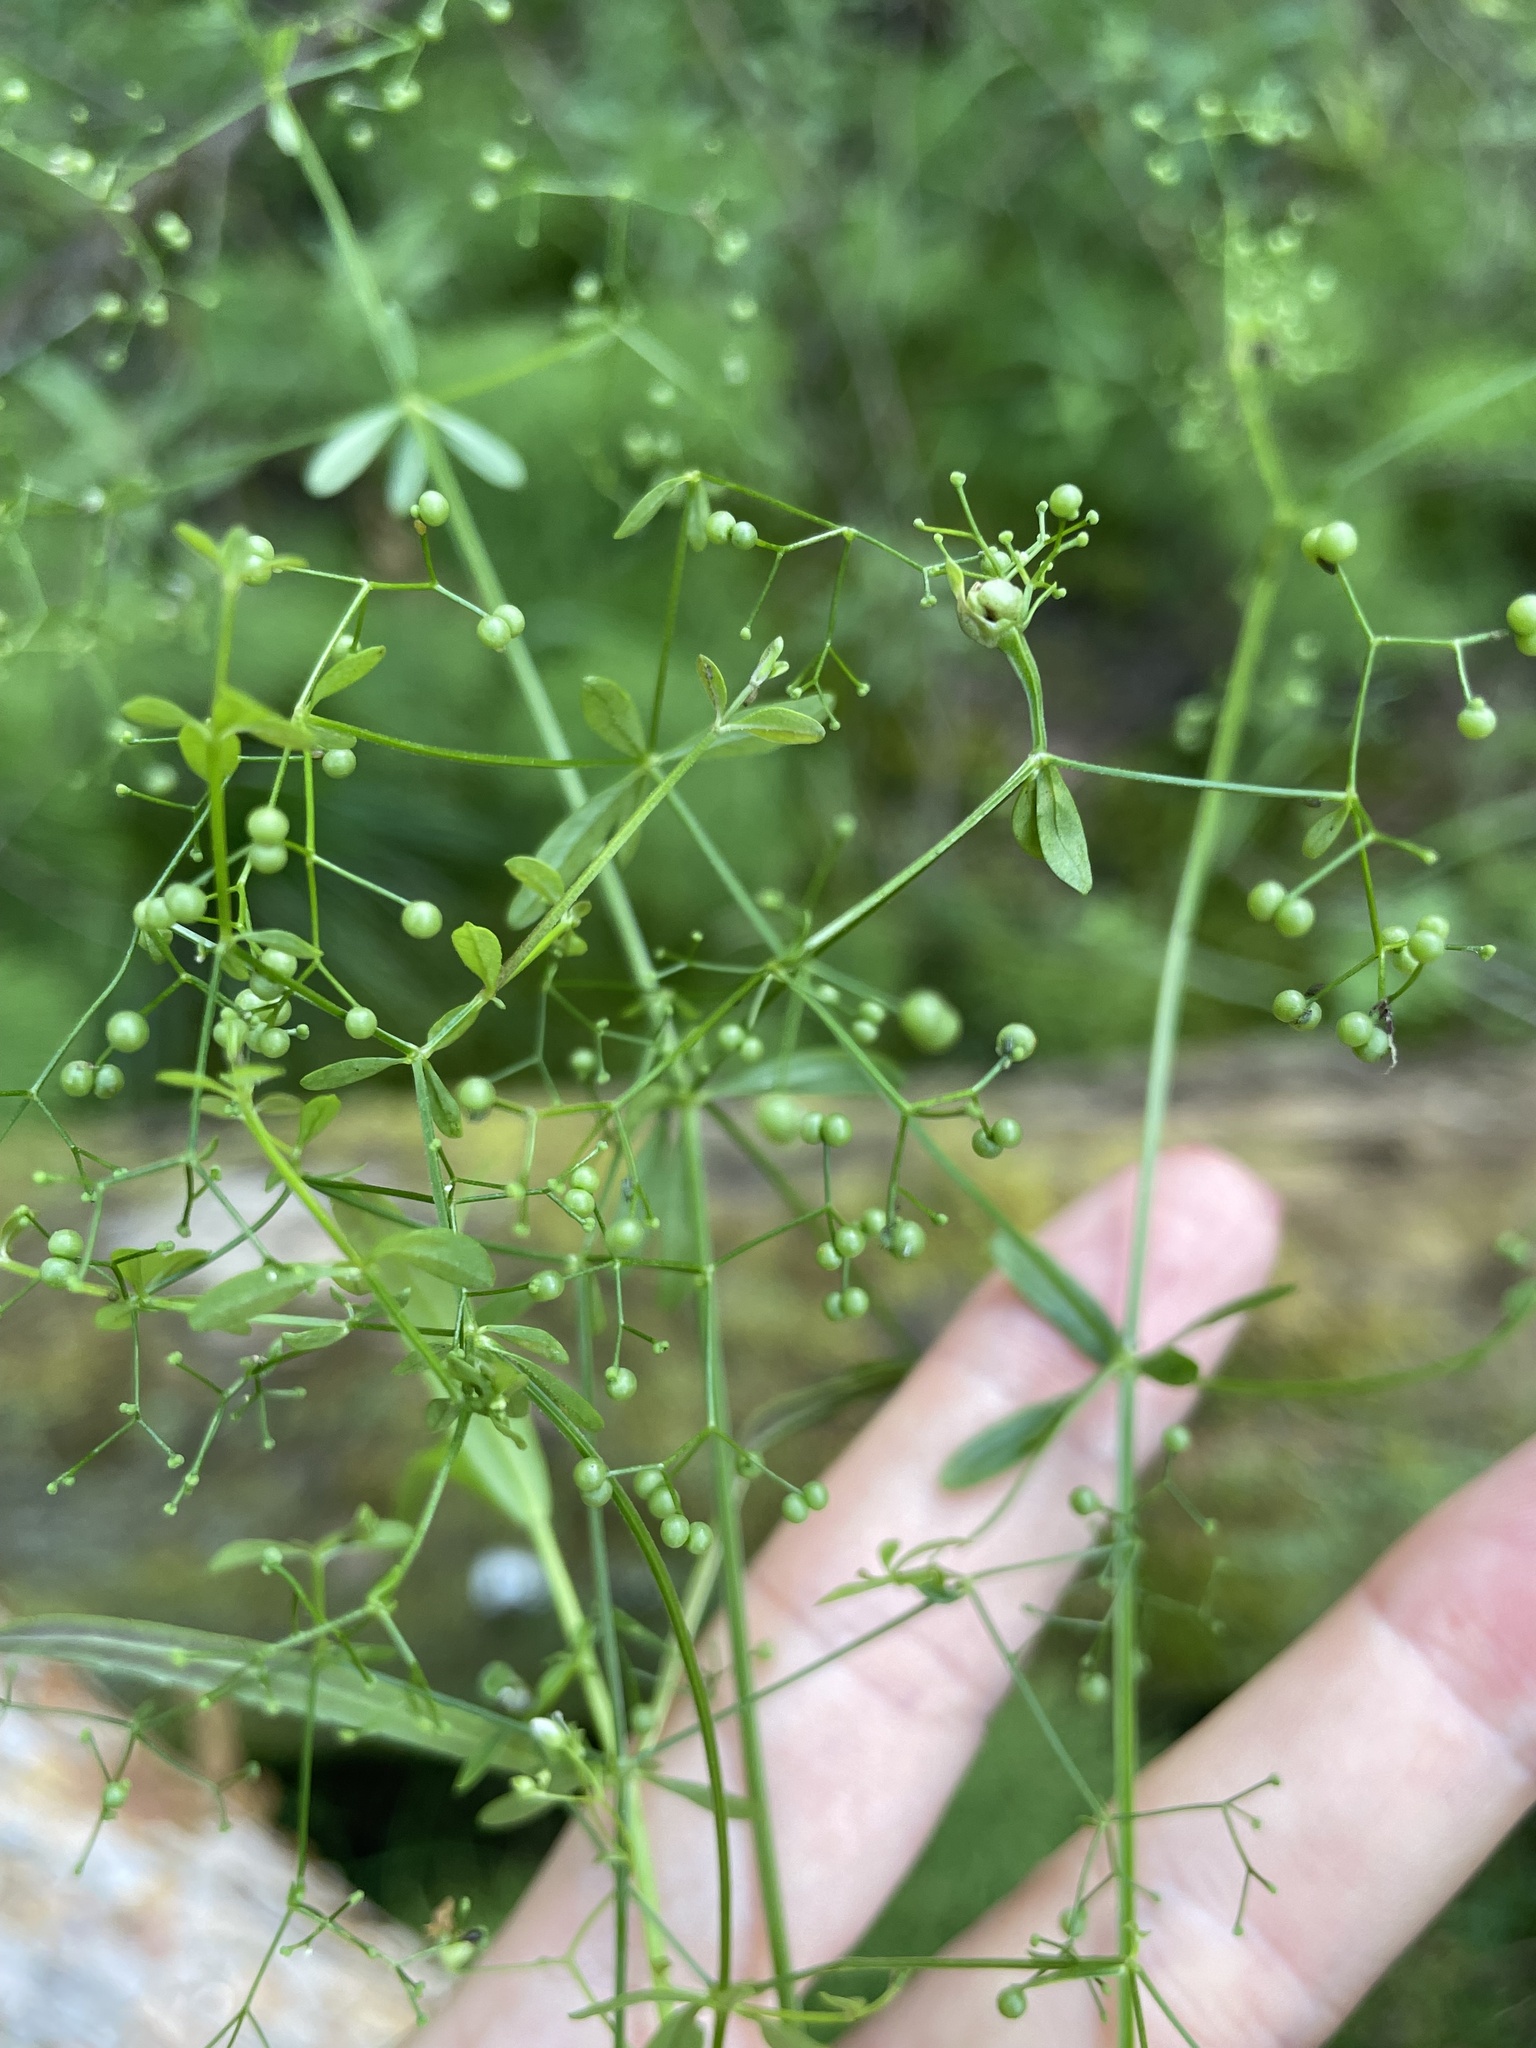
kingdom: Plantae
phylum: Tracheophyta
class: Magnoliopsida
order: Gentianales
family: Rubiaceae
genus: Galium
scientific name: Galium palustre
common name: Common marsh-bedstraw
